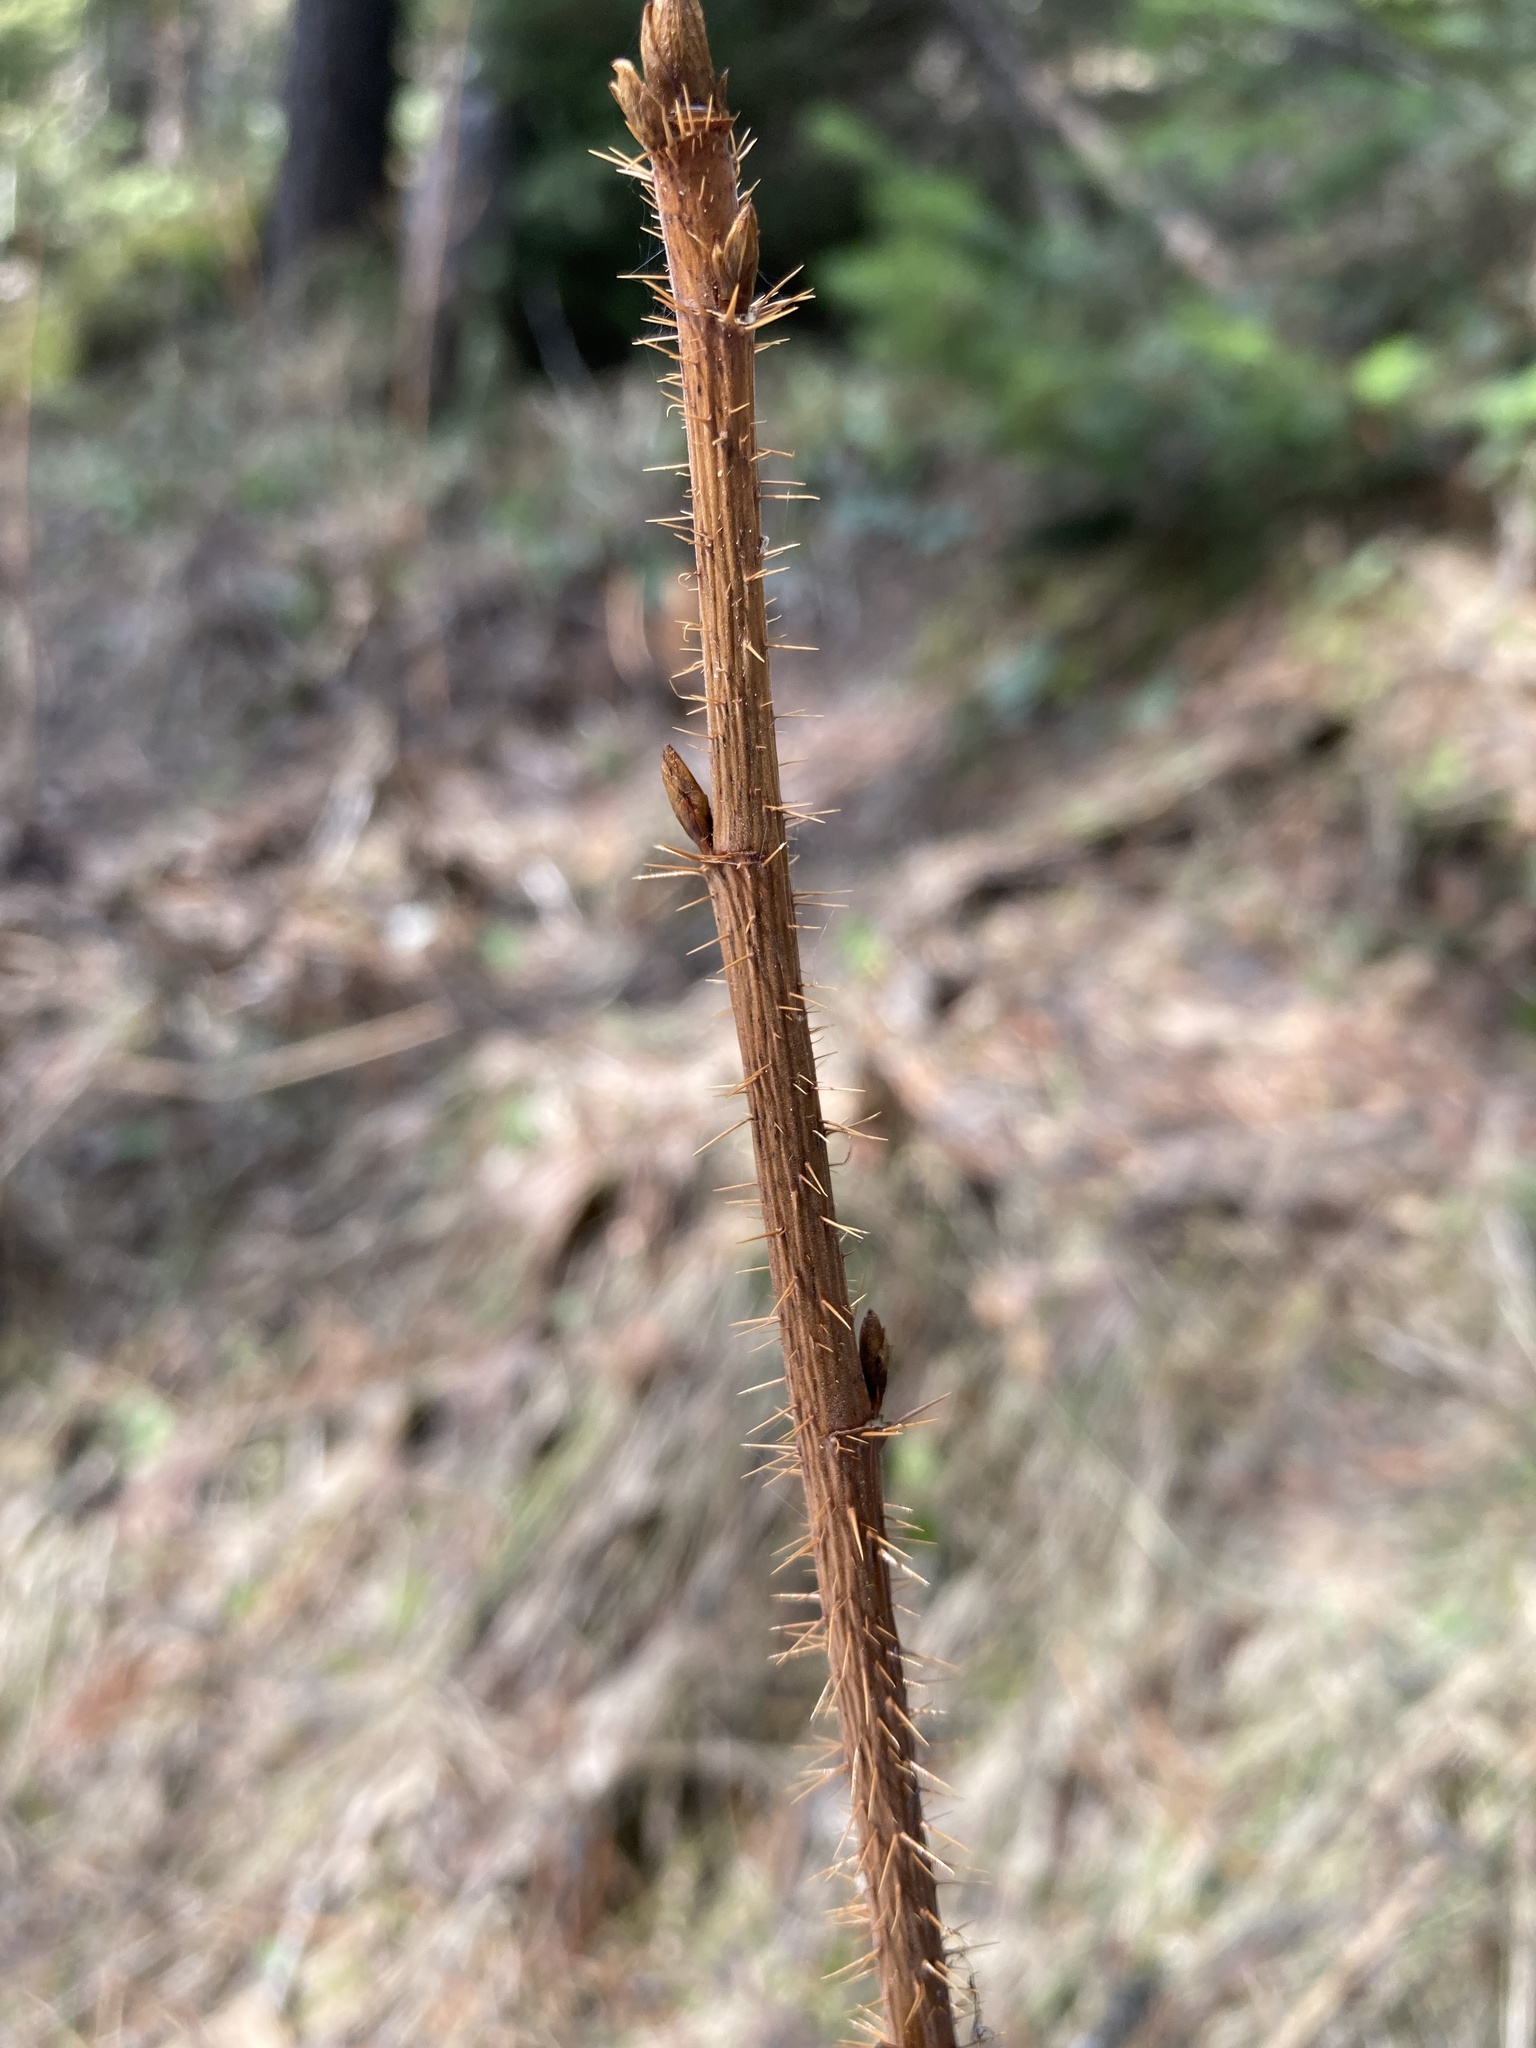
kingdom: Plantae
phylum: Tracheophyta
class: Magnoliopsida
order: Saxifragales
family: Grossulariaceae
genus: Ribes
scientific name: Ribes lacustre
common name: Black gooseberry
